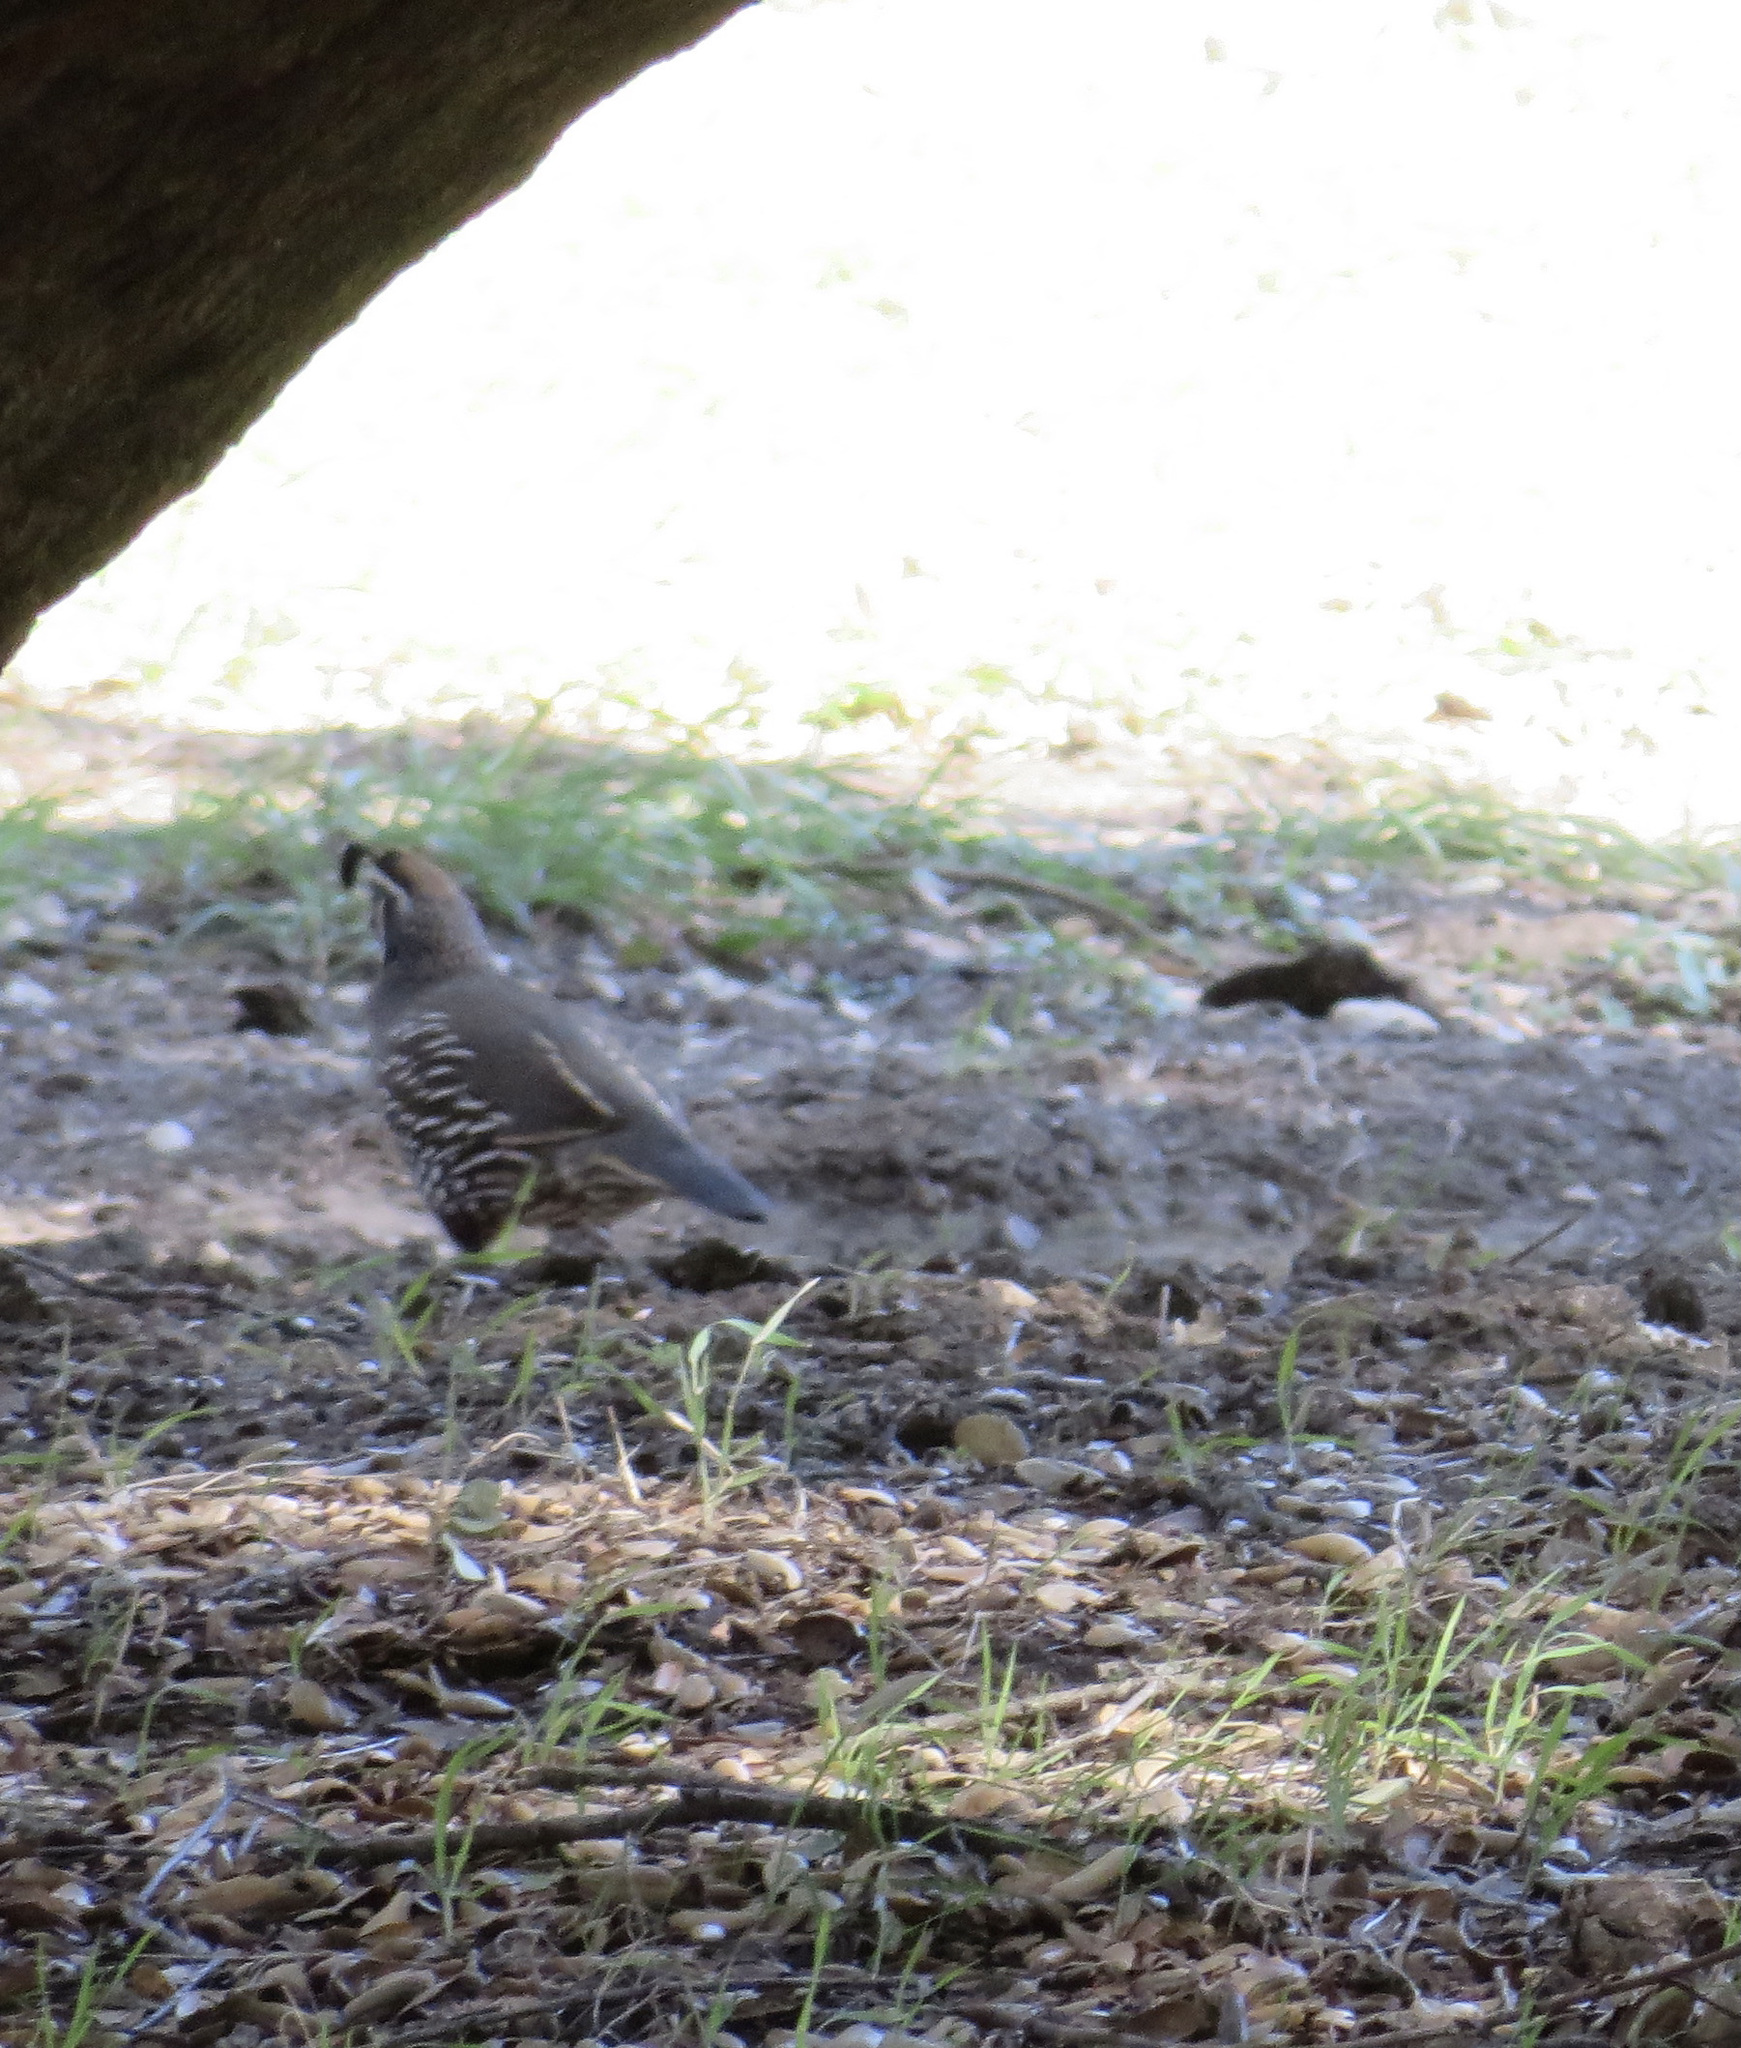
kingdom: Animalia
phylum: Chordata
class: Aves
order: Galliformes
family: Odontophoridae
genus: Callipepla
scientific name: Callipepla californica
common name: California quail
